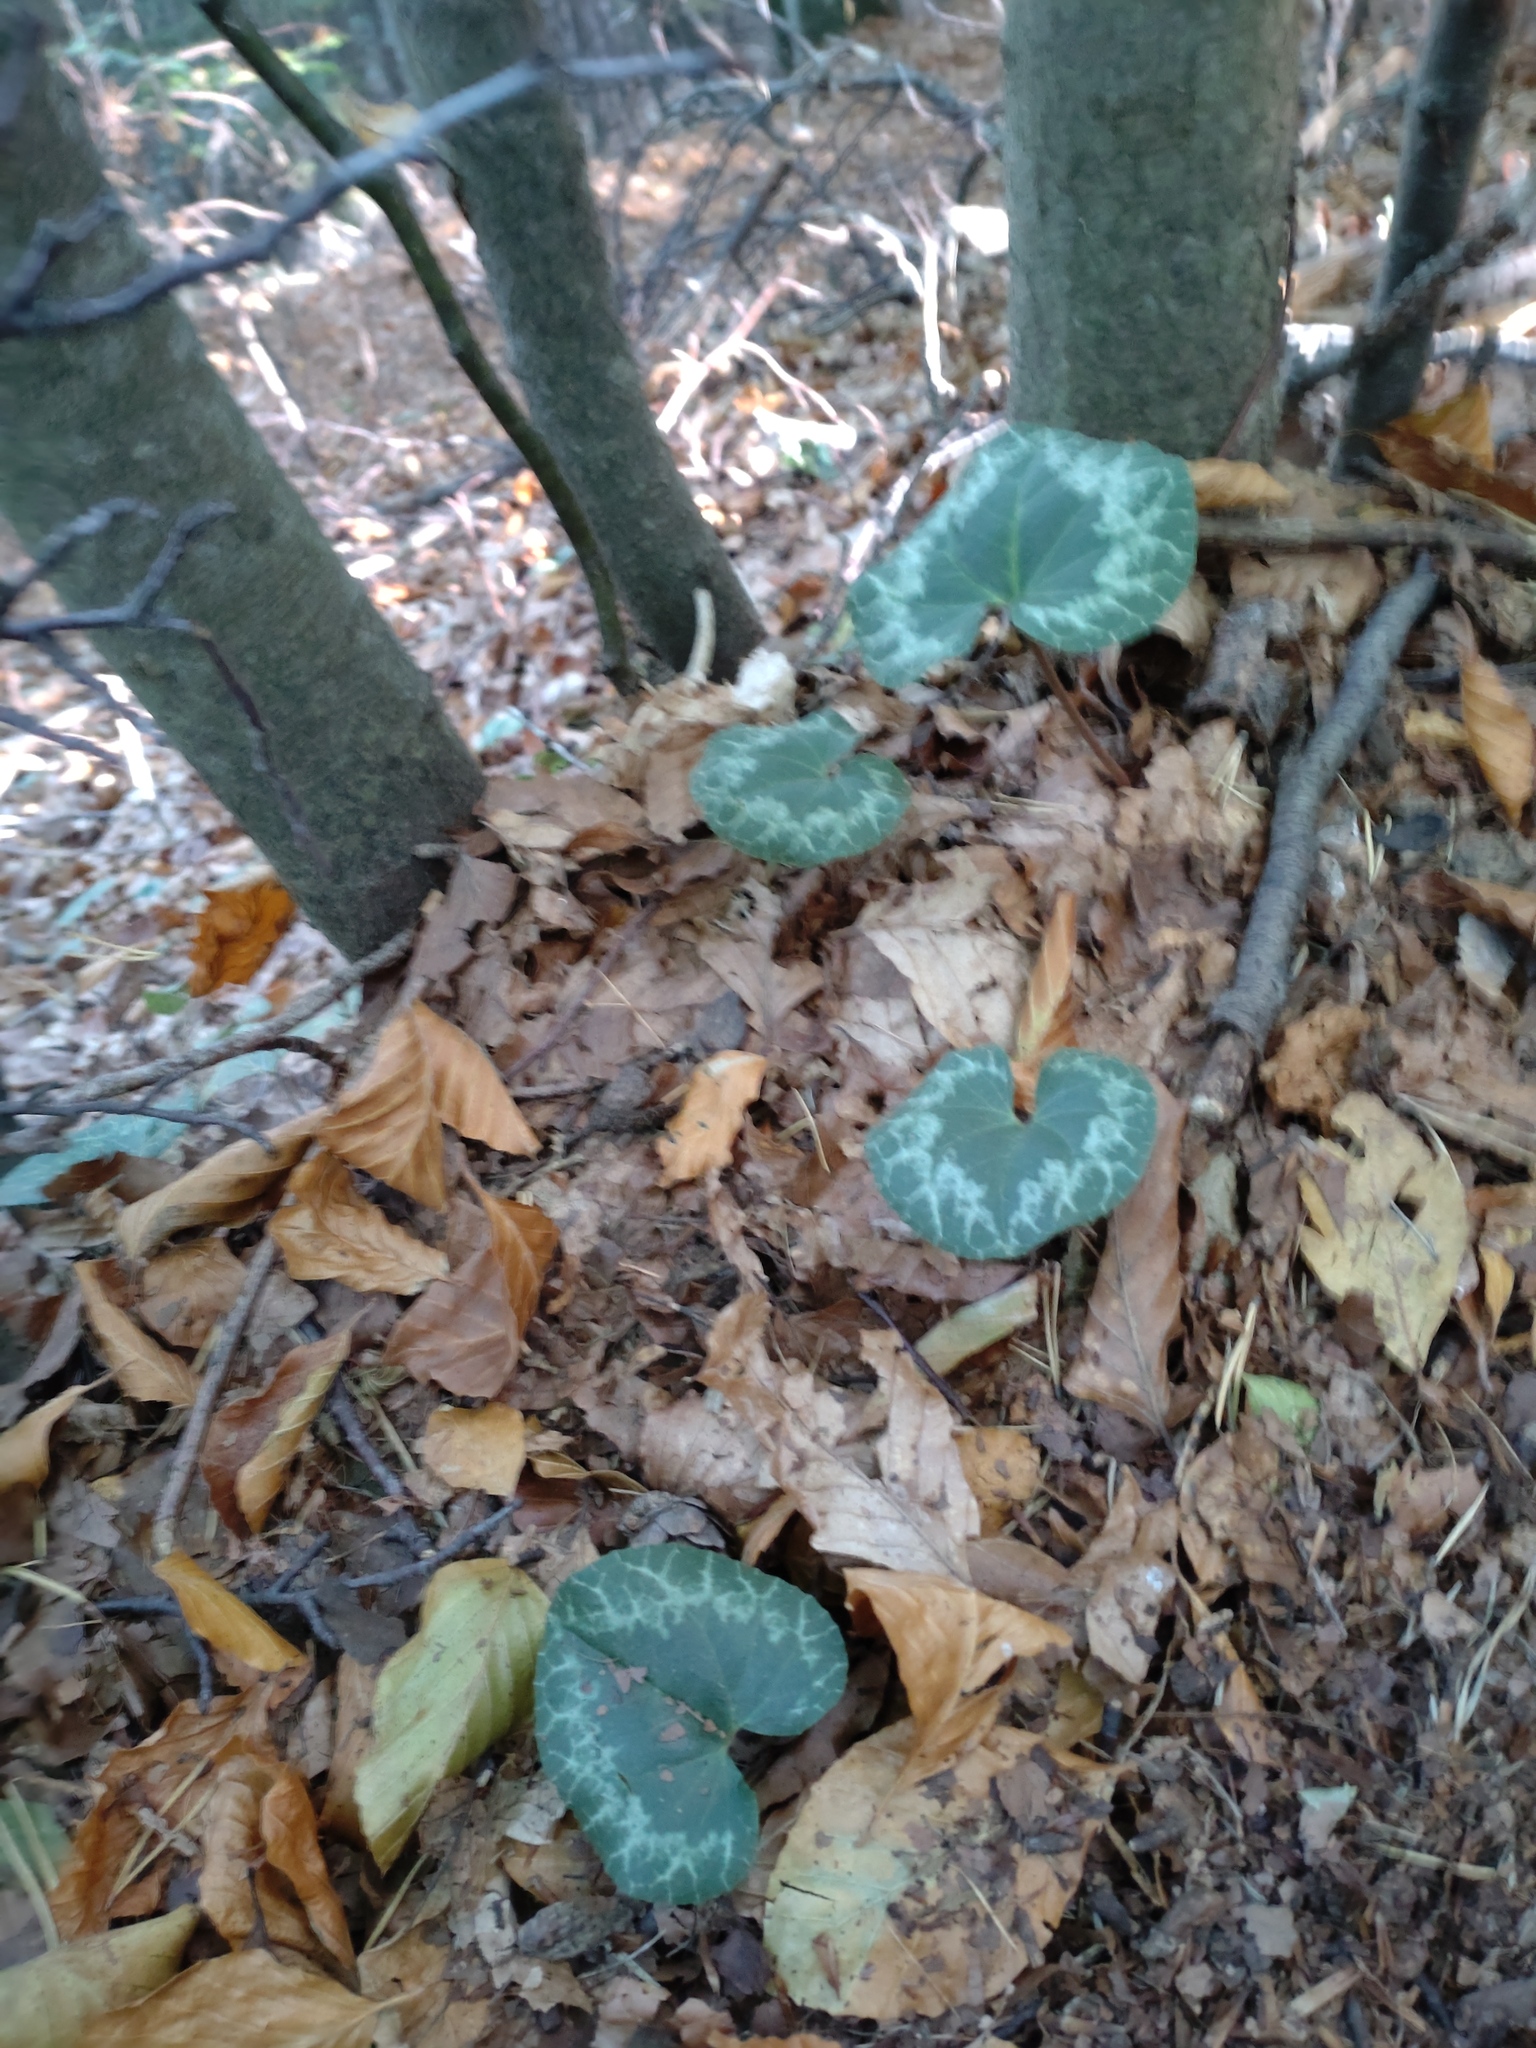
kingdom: Plantae
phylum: Tracheophyta
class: Magnoliopsida
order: Ericales
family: Primulaceae
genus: Cyclamen
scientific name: Cyclamen purpurascens
